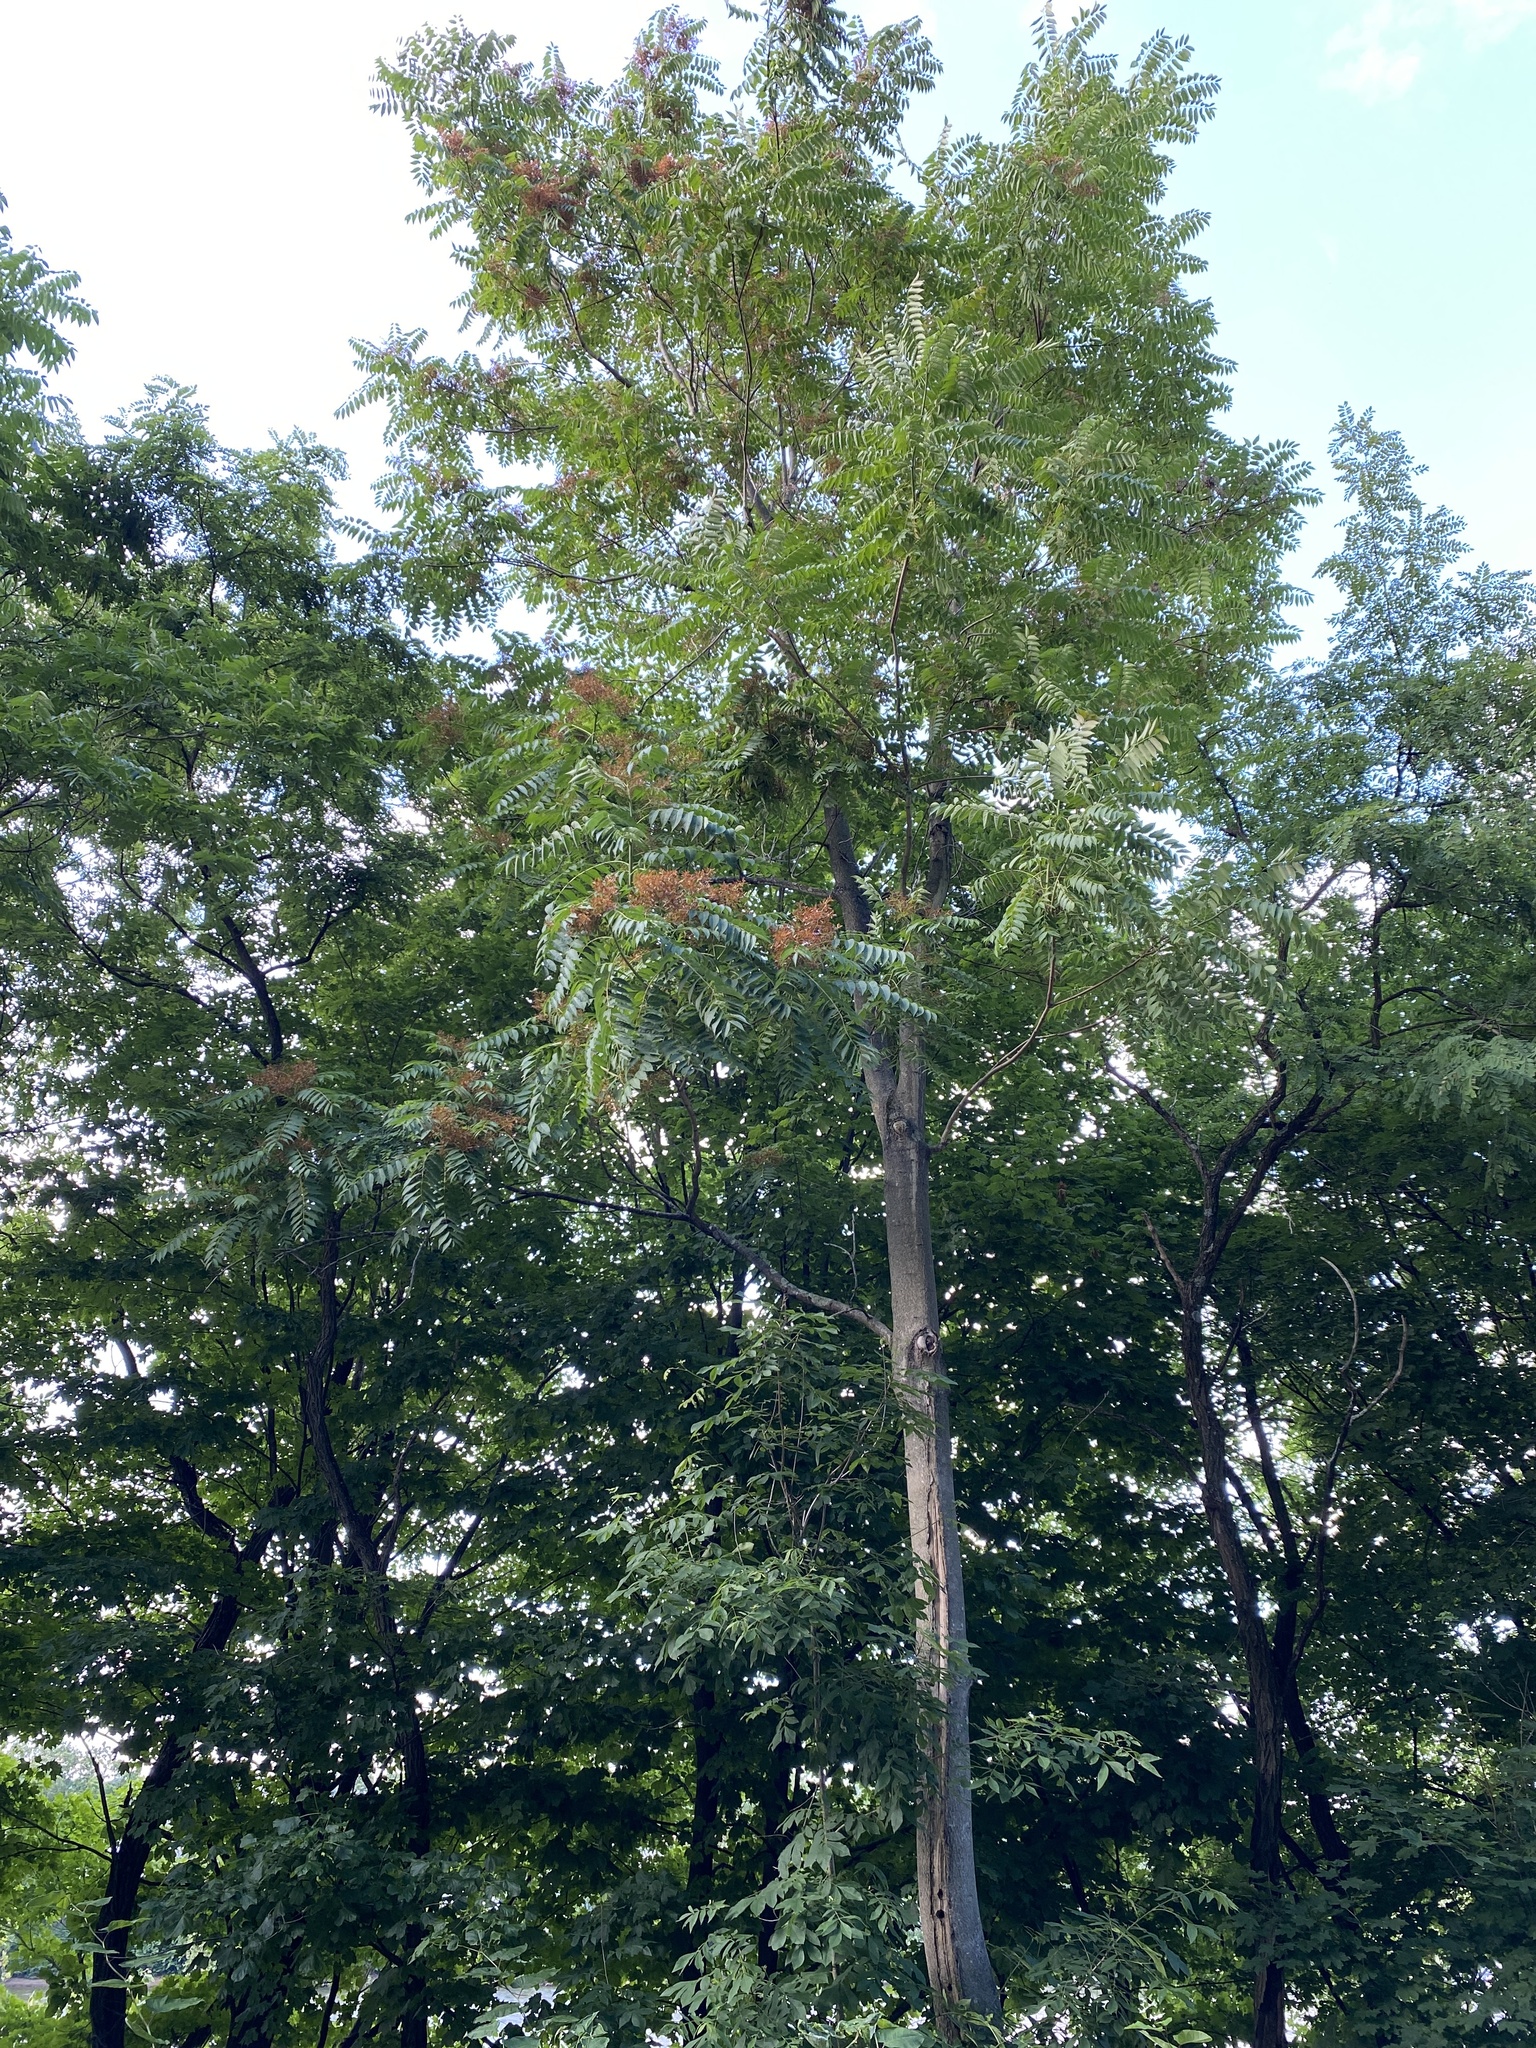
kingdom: Plantae
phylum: Tracheophyta
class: Magnoliopsida
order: Sapindales
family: Simaroubaceae
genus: Ailanthus
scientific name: Ailanthus altissima
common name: Tree-of-heaven
